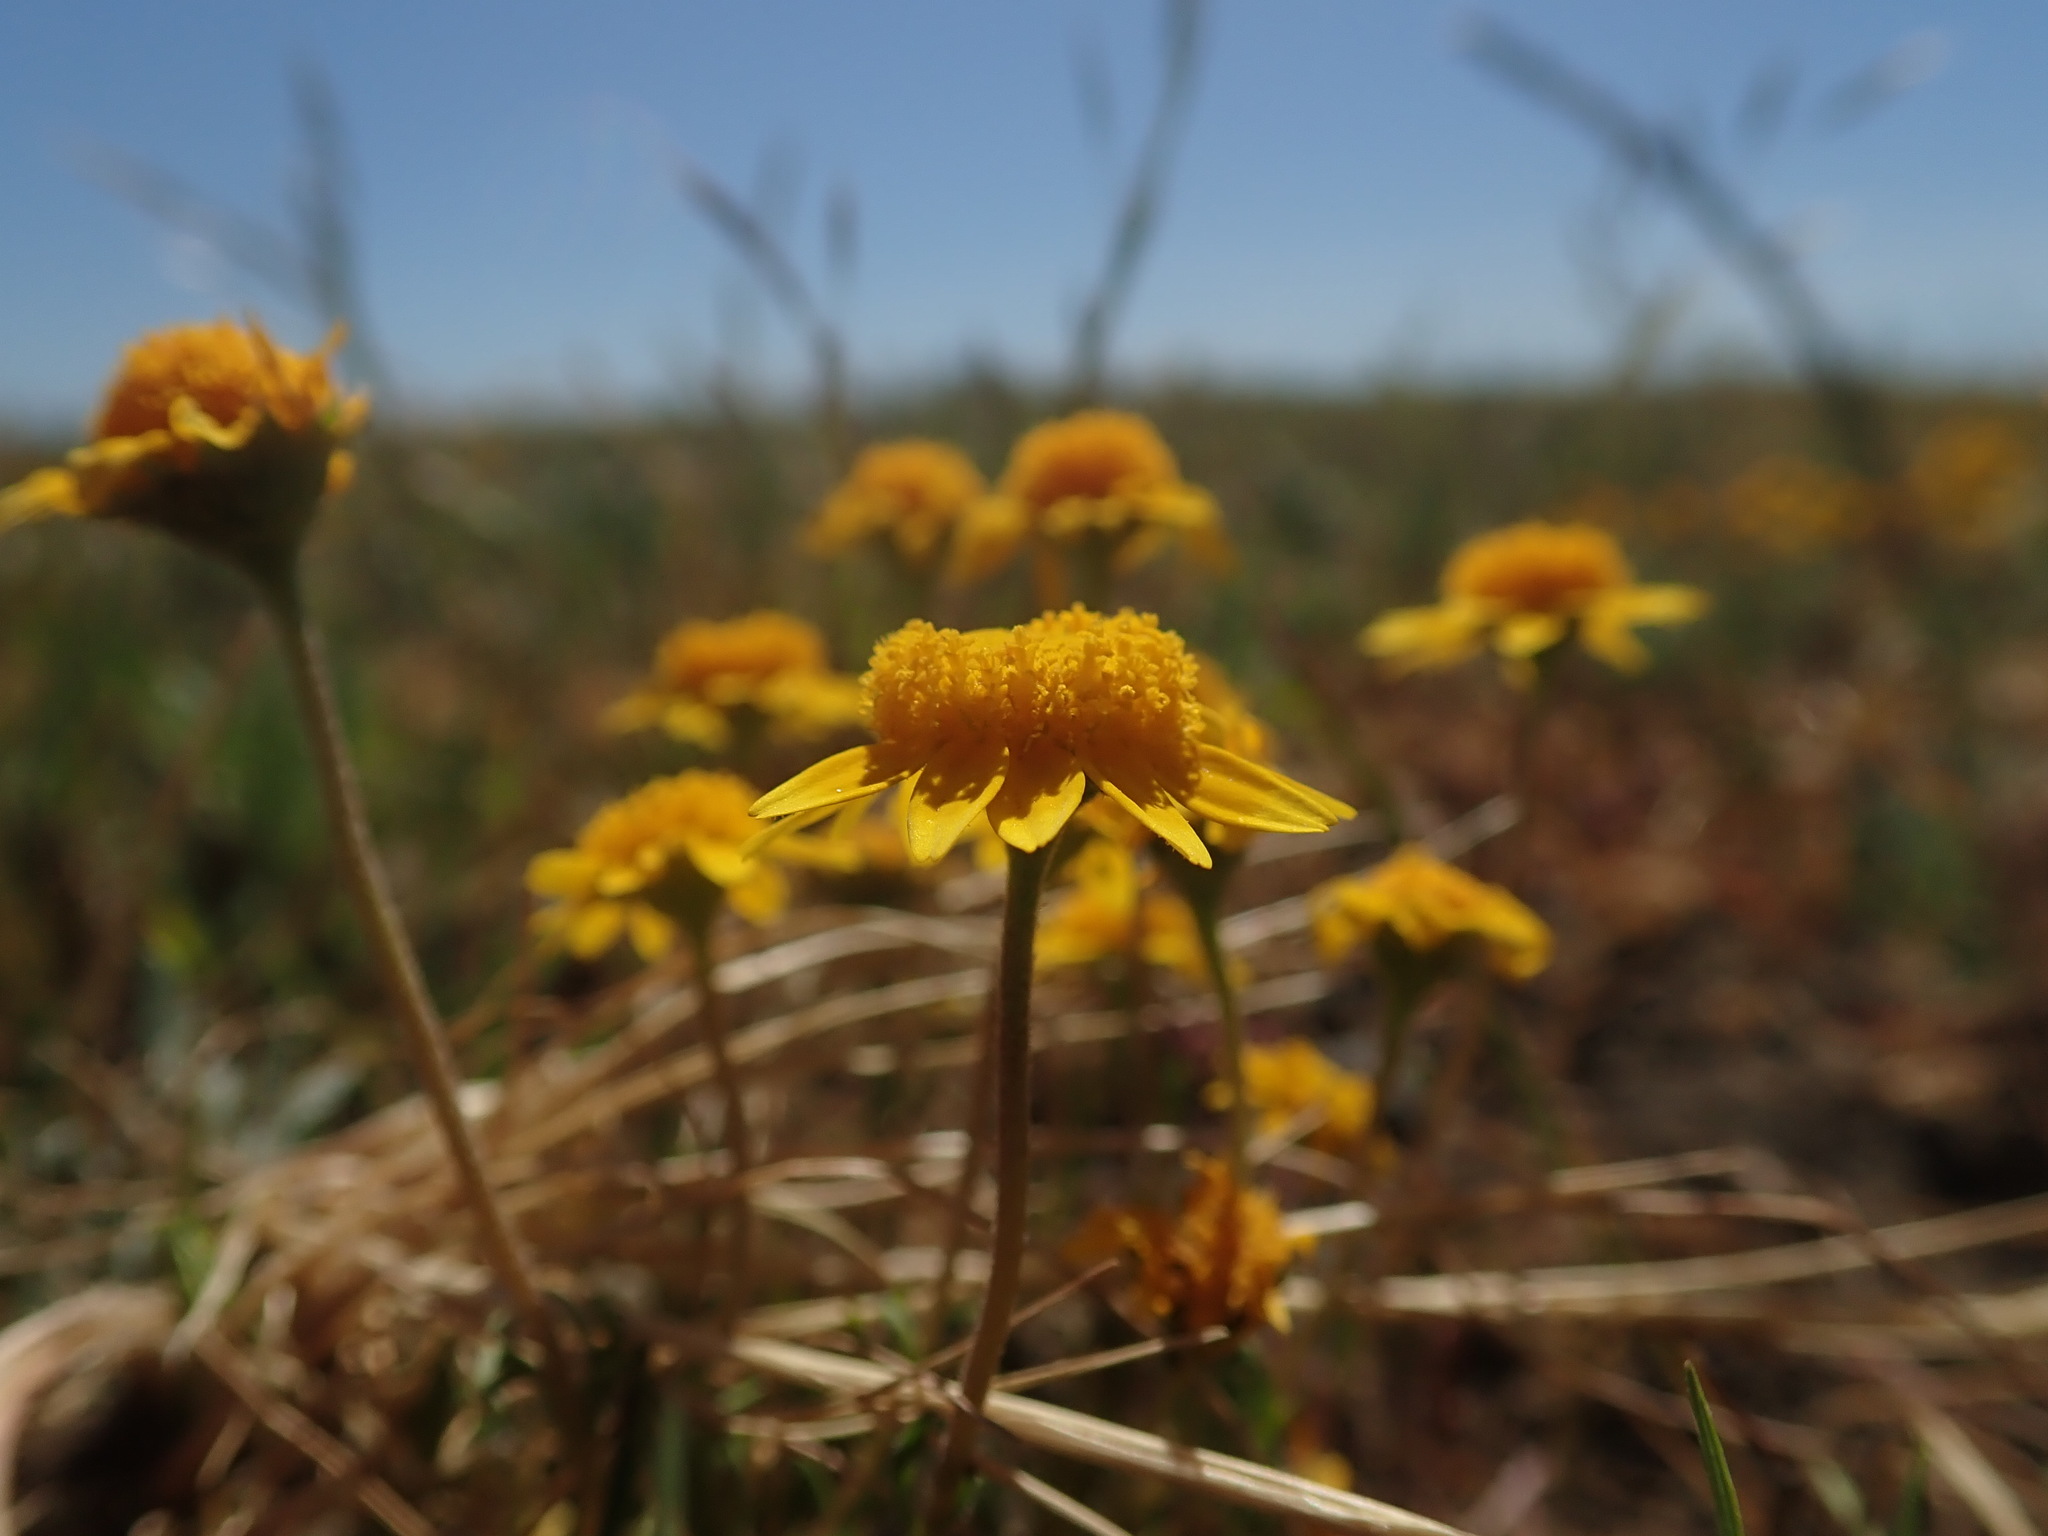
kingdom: Plantae
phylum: Tracheophyta
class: Magnoliopsida
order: Asterales
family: Asteraceae
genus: Lasthenia
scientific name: Lasthenia conjugens
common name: Contra costa goldfields
